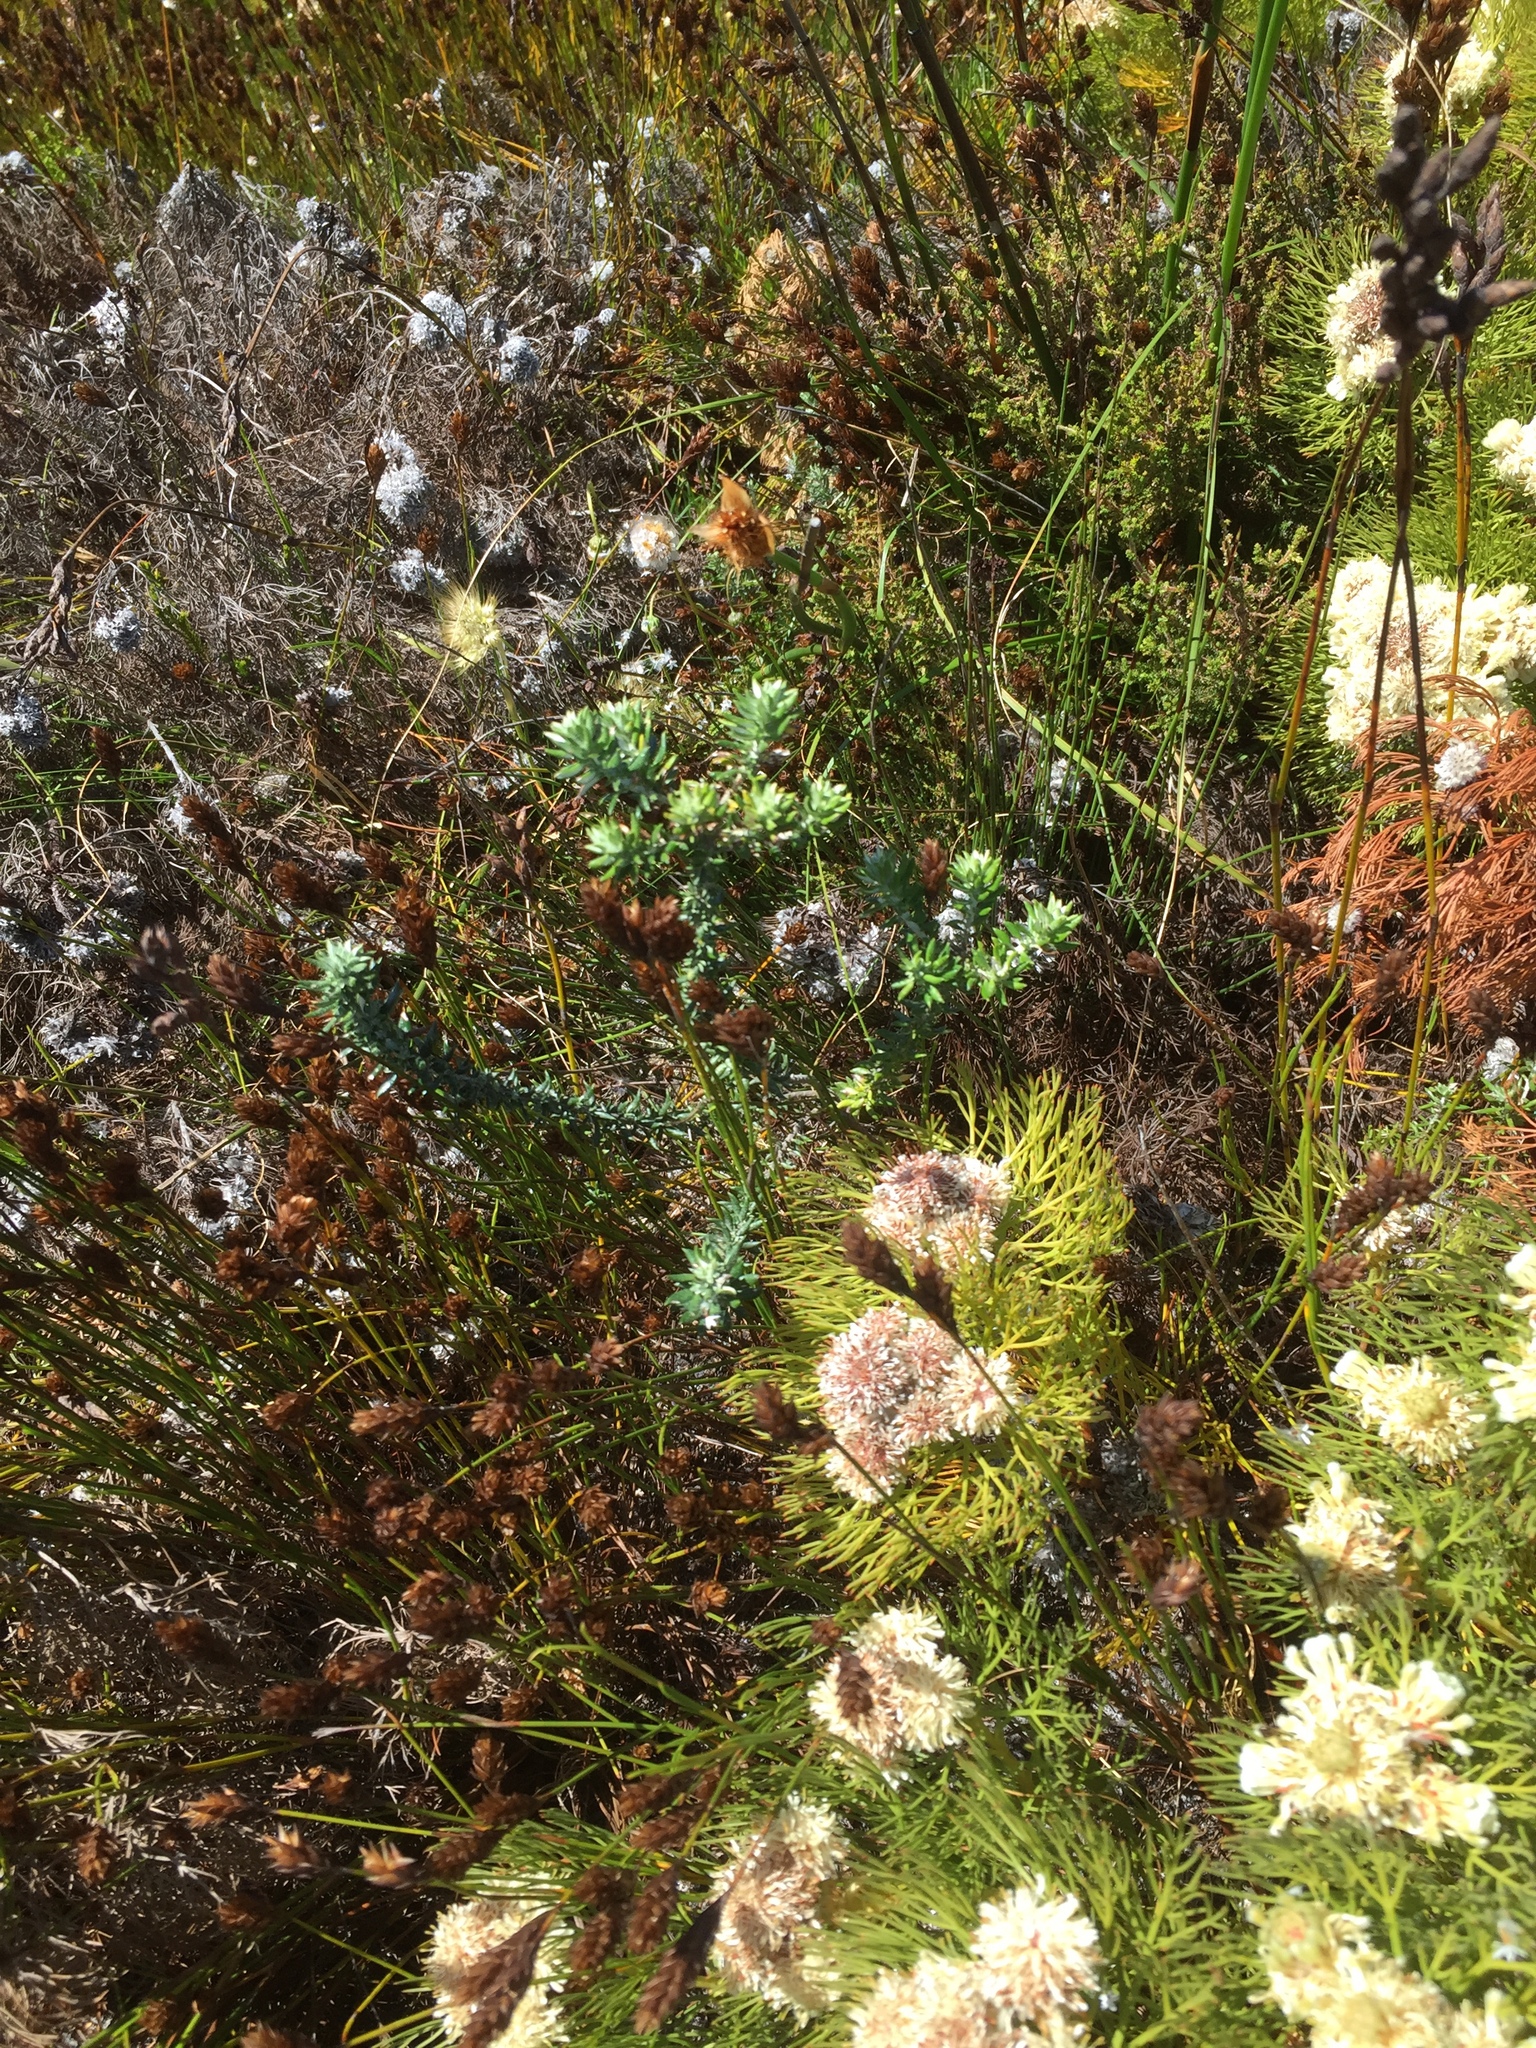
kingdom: Plantae
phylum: Tracheophyta
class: Magnoliopsida
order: Asterales
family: Asteraceae
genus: Metalasia
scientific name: Metalasia muricata
